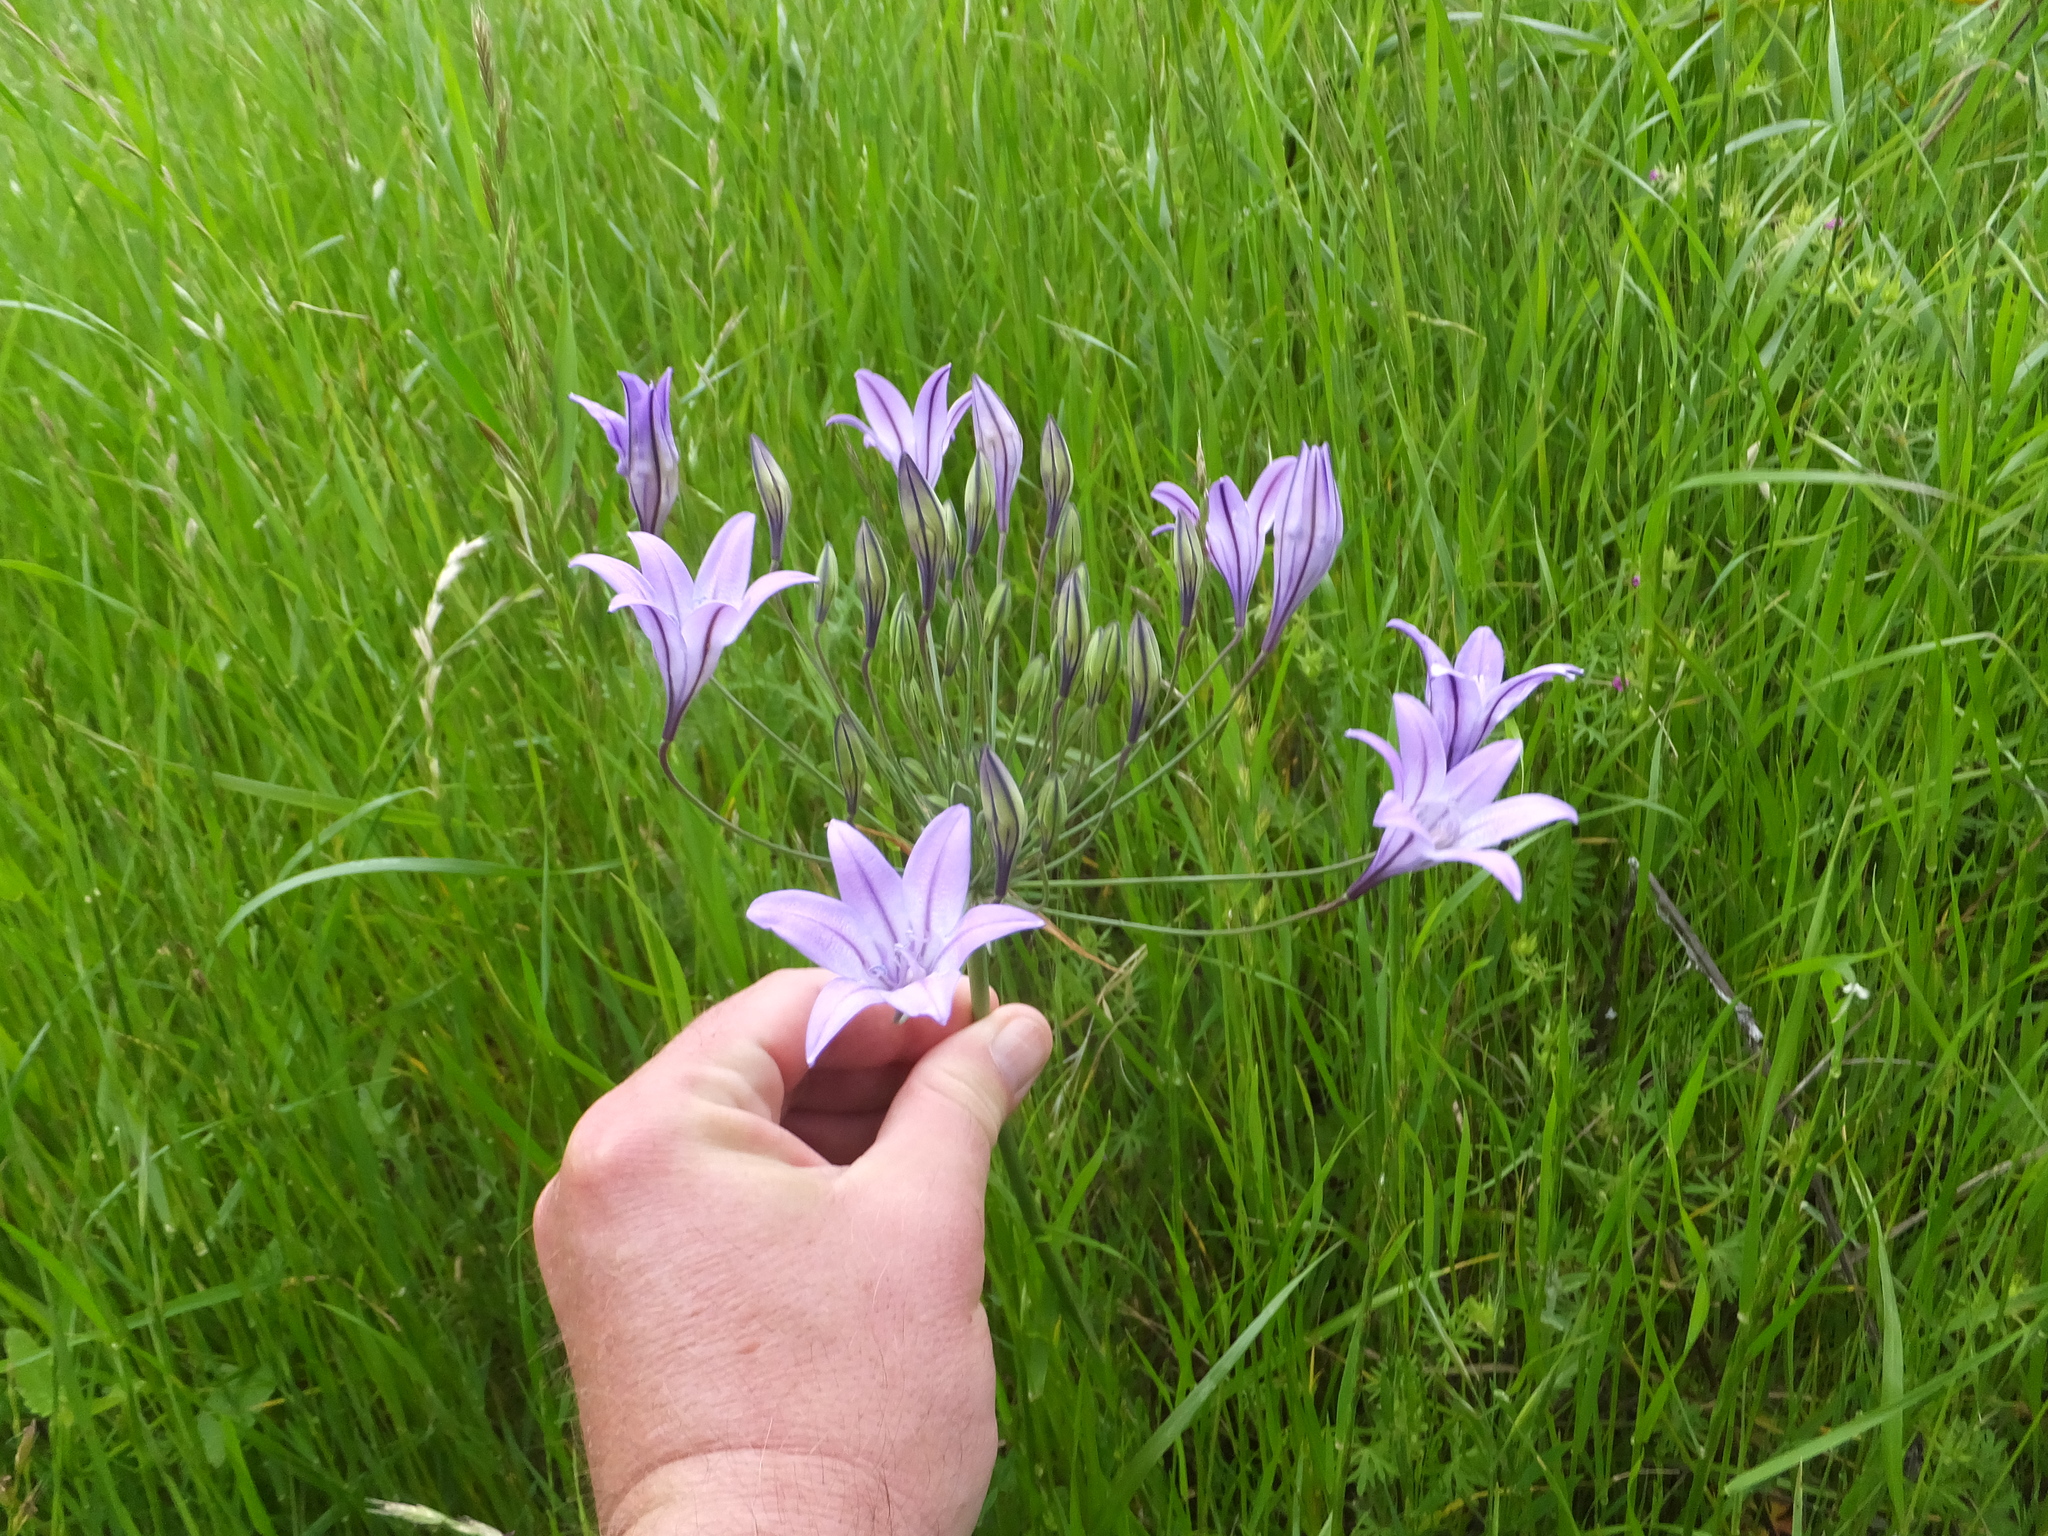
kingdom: Plantae
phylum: Tracheophyta
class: Liliopsida
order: Asparagales
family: Asparagaceae
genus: Triteleia
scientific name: Triteleia laxa
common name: Triplet-lily
